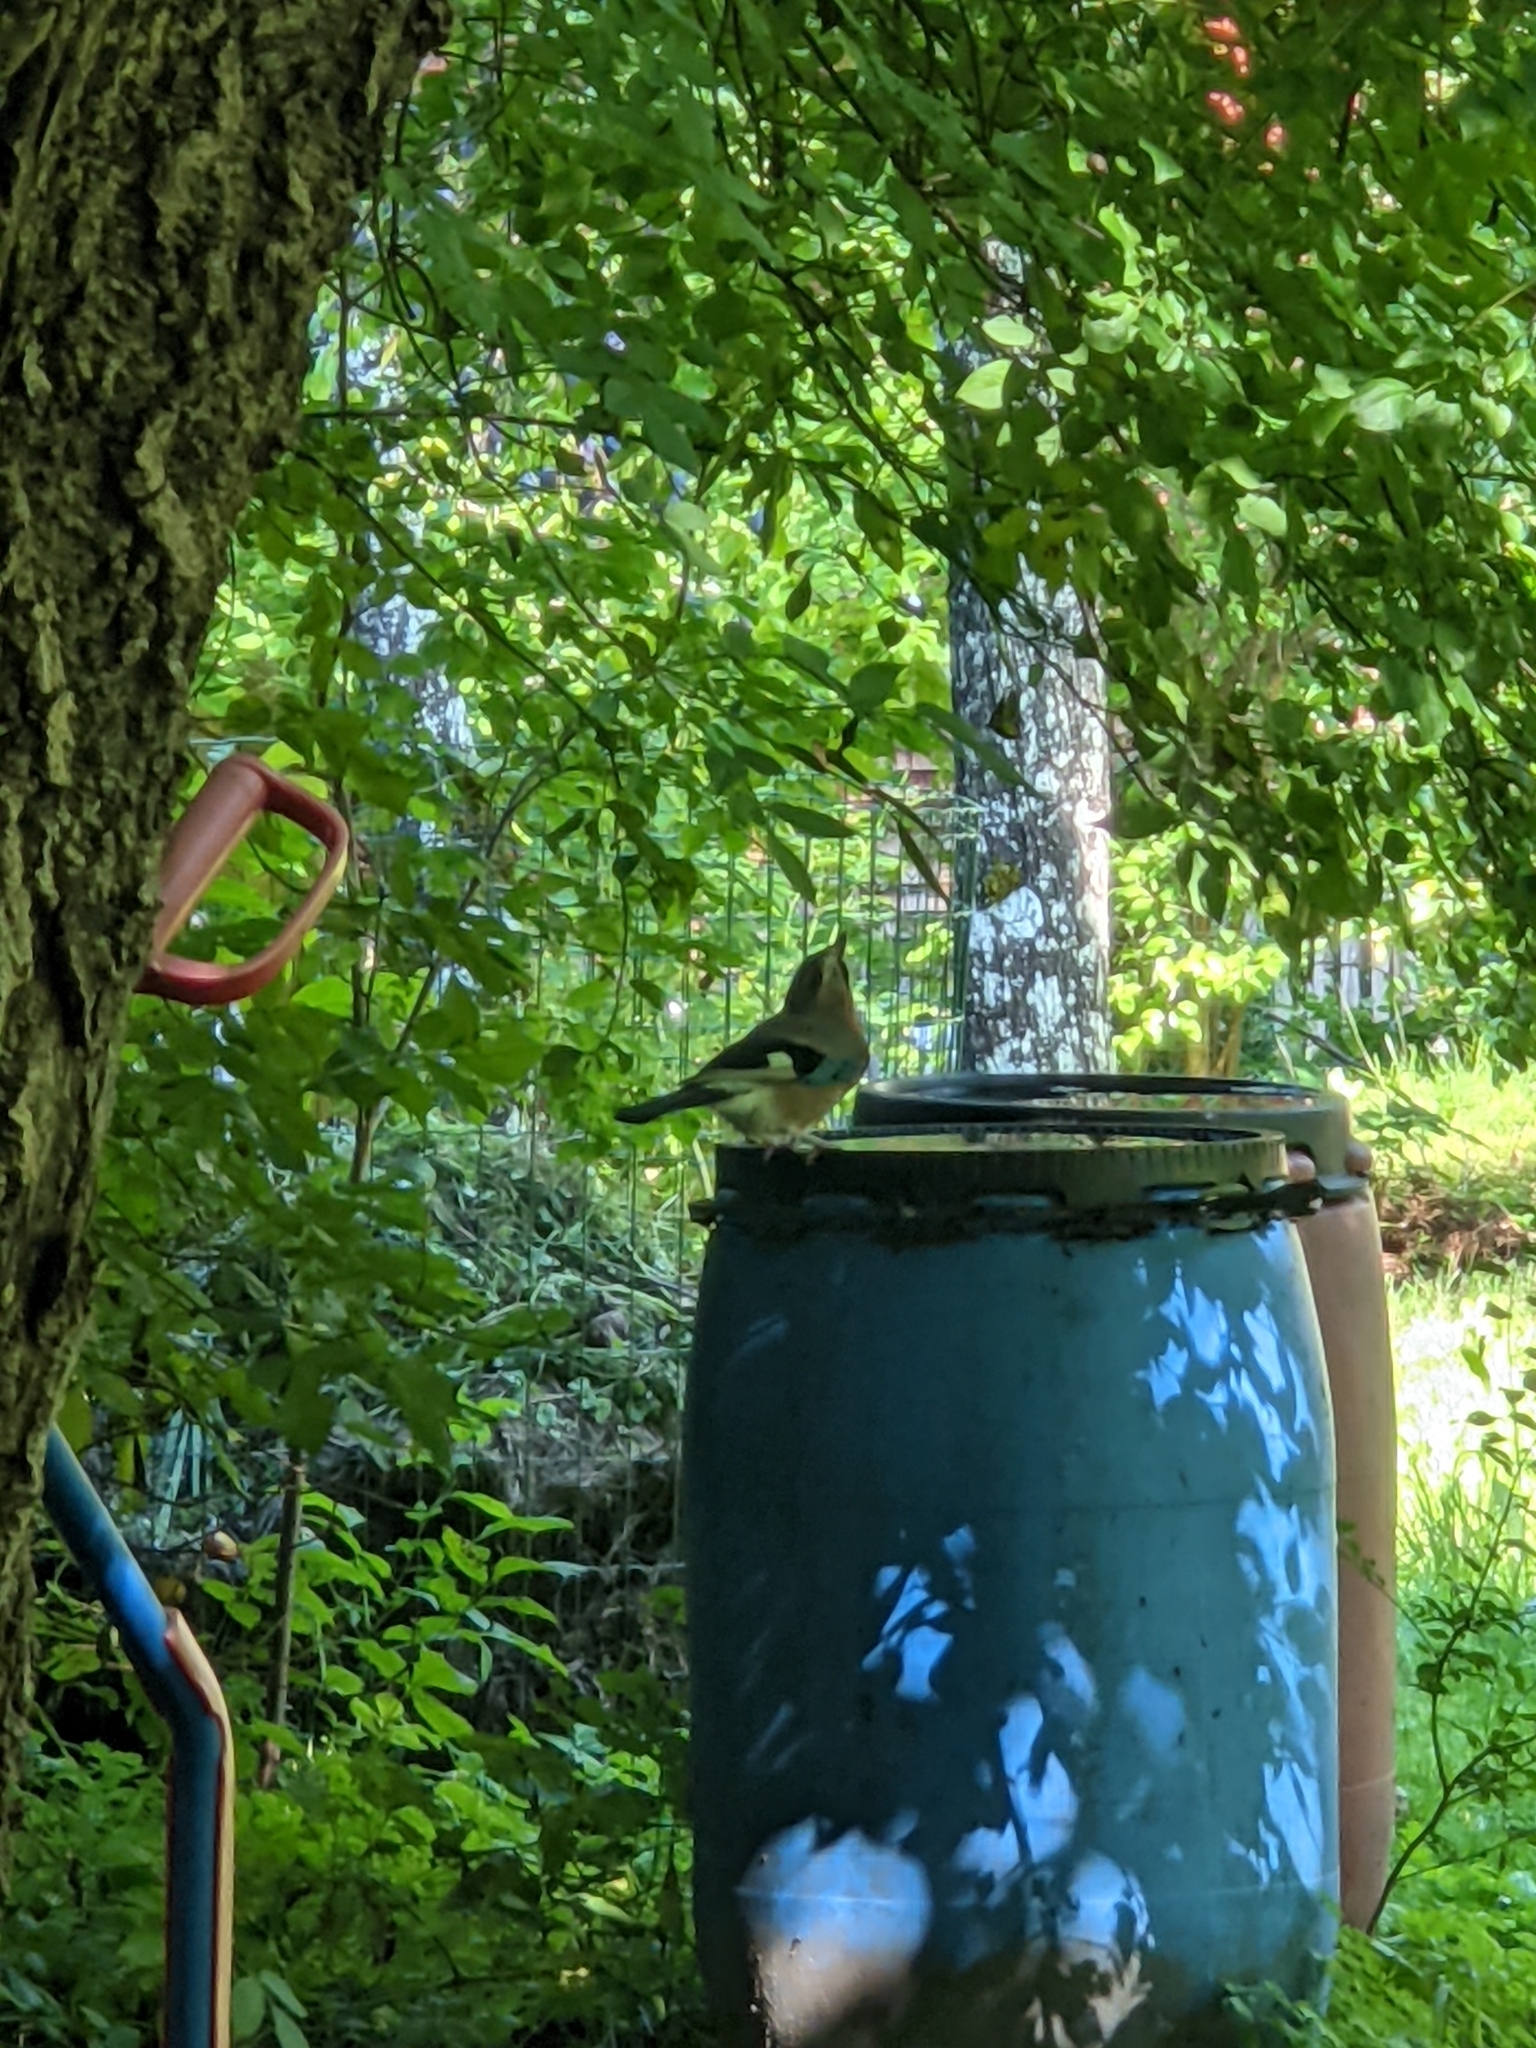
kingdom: Animalia
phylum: Chordata
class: Aves
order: Passeriformes
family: Corvidae
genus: Garrulus
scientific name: Garrulus glandarius
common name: Eurasian jay
